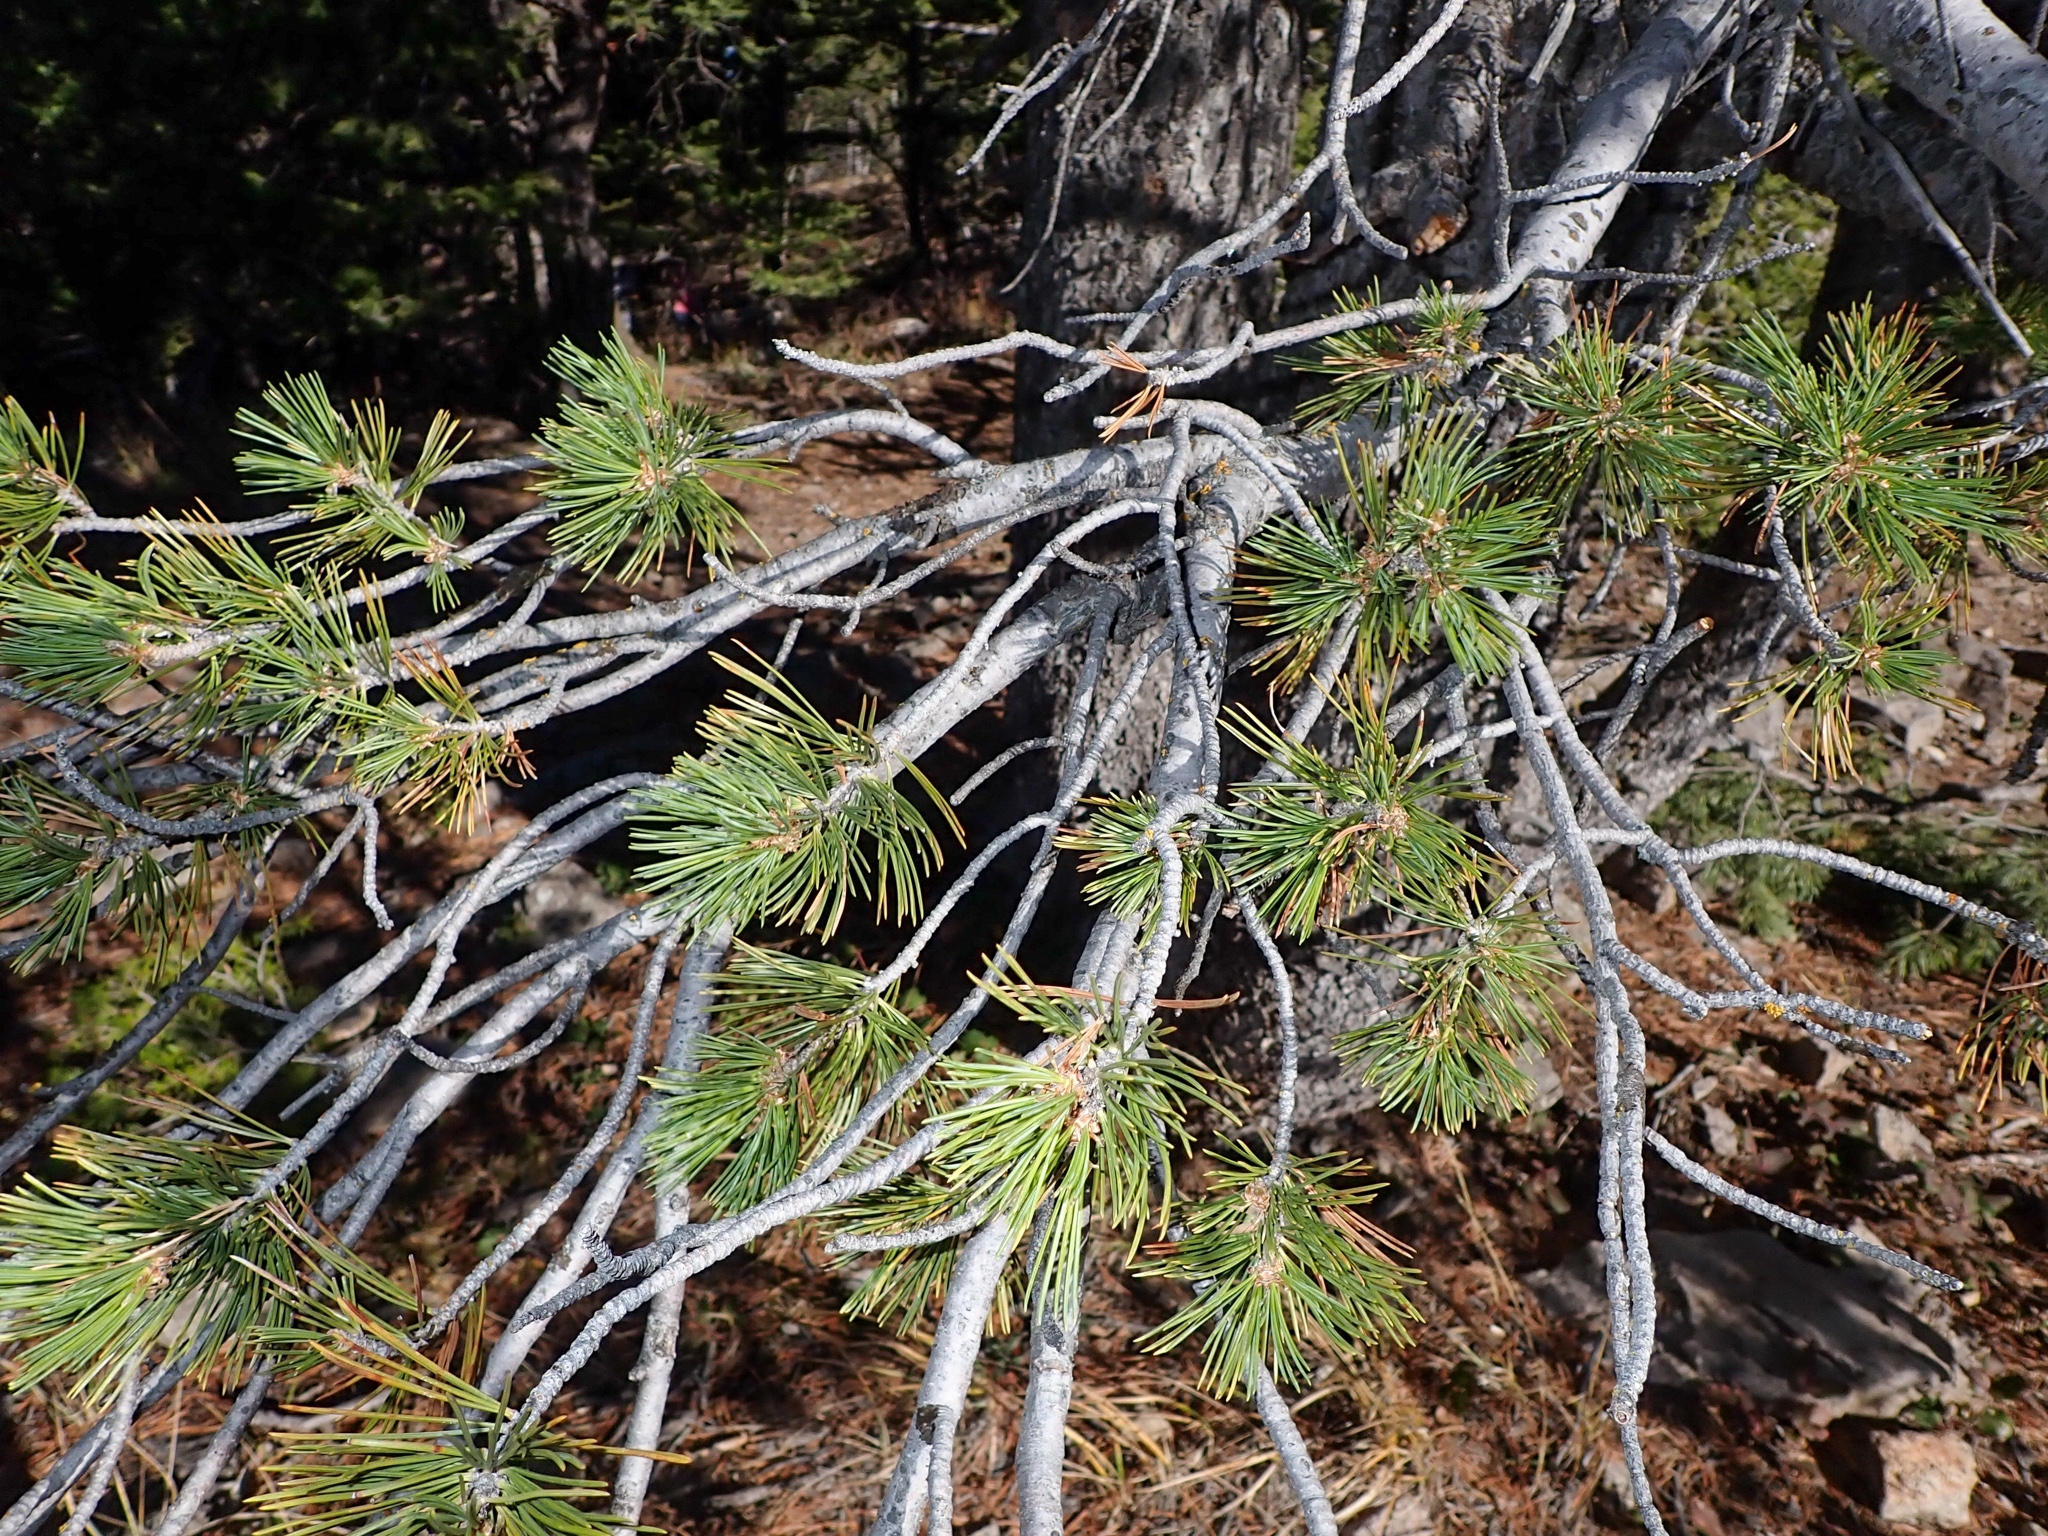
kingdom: Plantae
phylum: Tracheophyta
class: Pinopsida
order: Pinales
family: Pinaceae
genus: Pinus
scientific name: Pinus flexilis
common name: Limber pine
